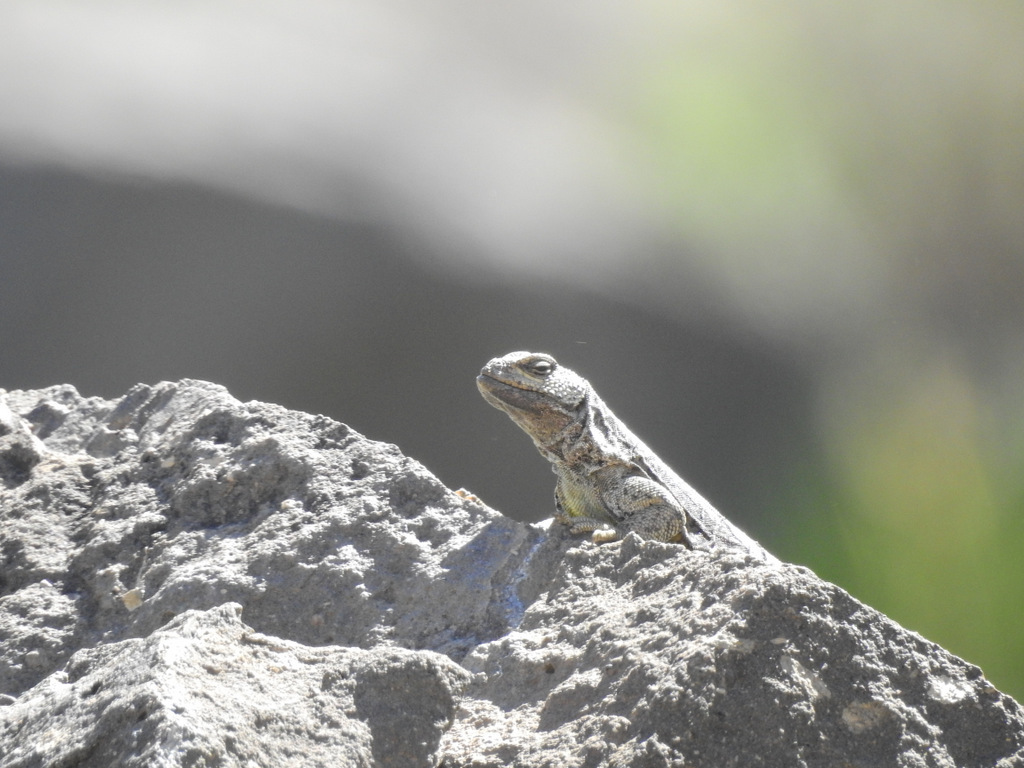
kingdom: Animalia
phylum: Chordata
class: Squamata
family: Liolaemidae
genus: Phymaturus
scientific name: Phymaturus verdugo
